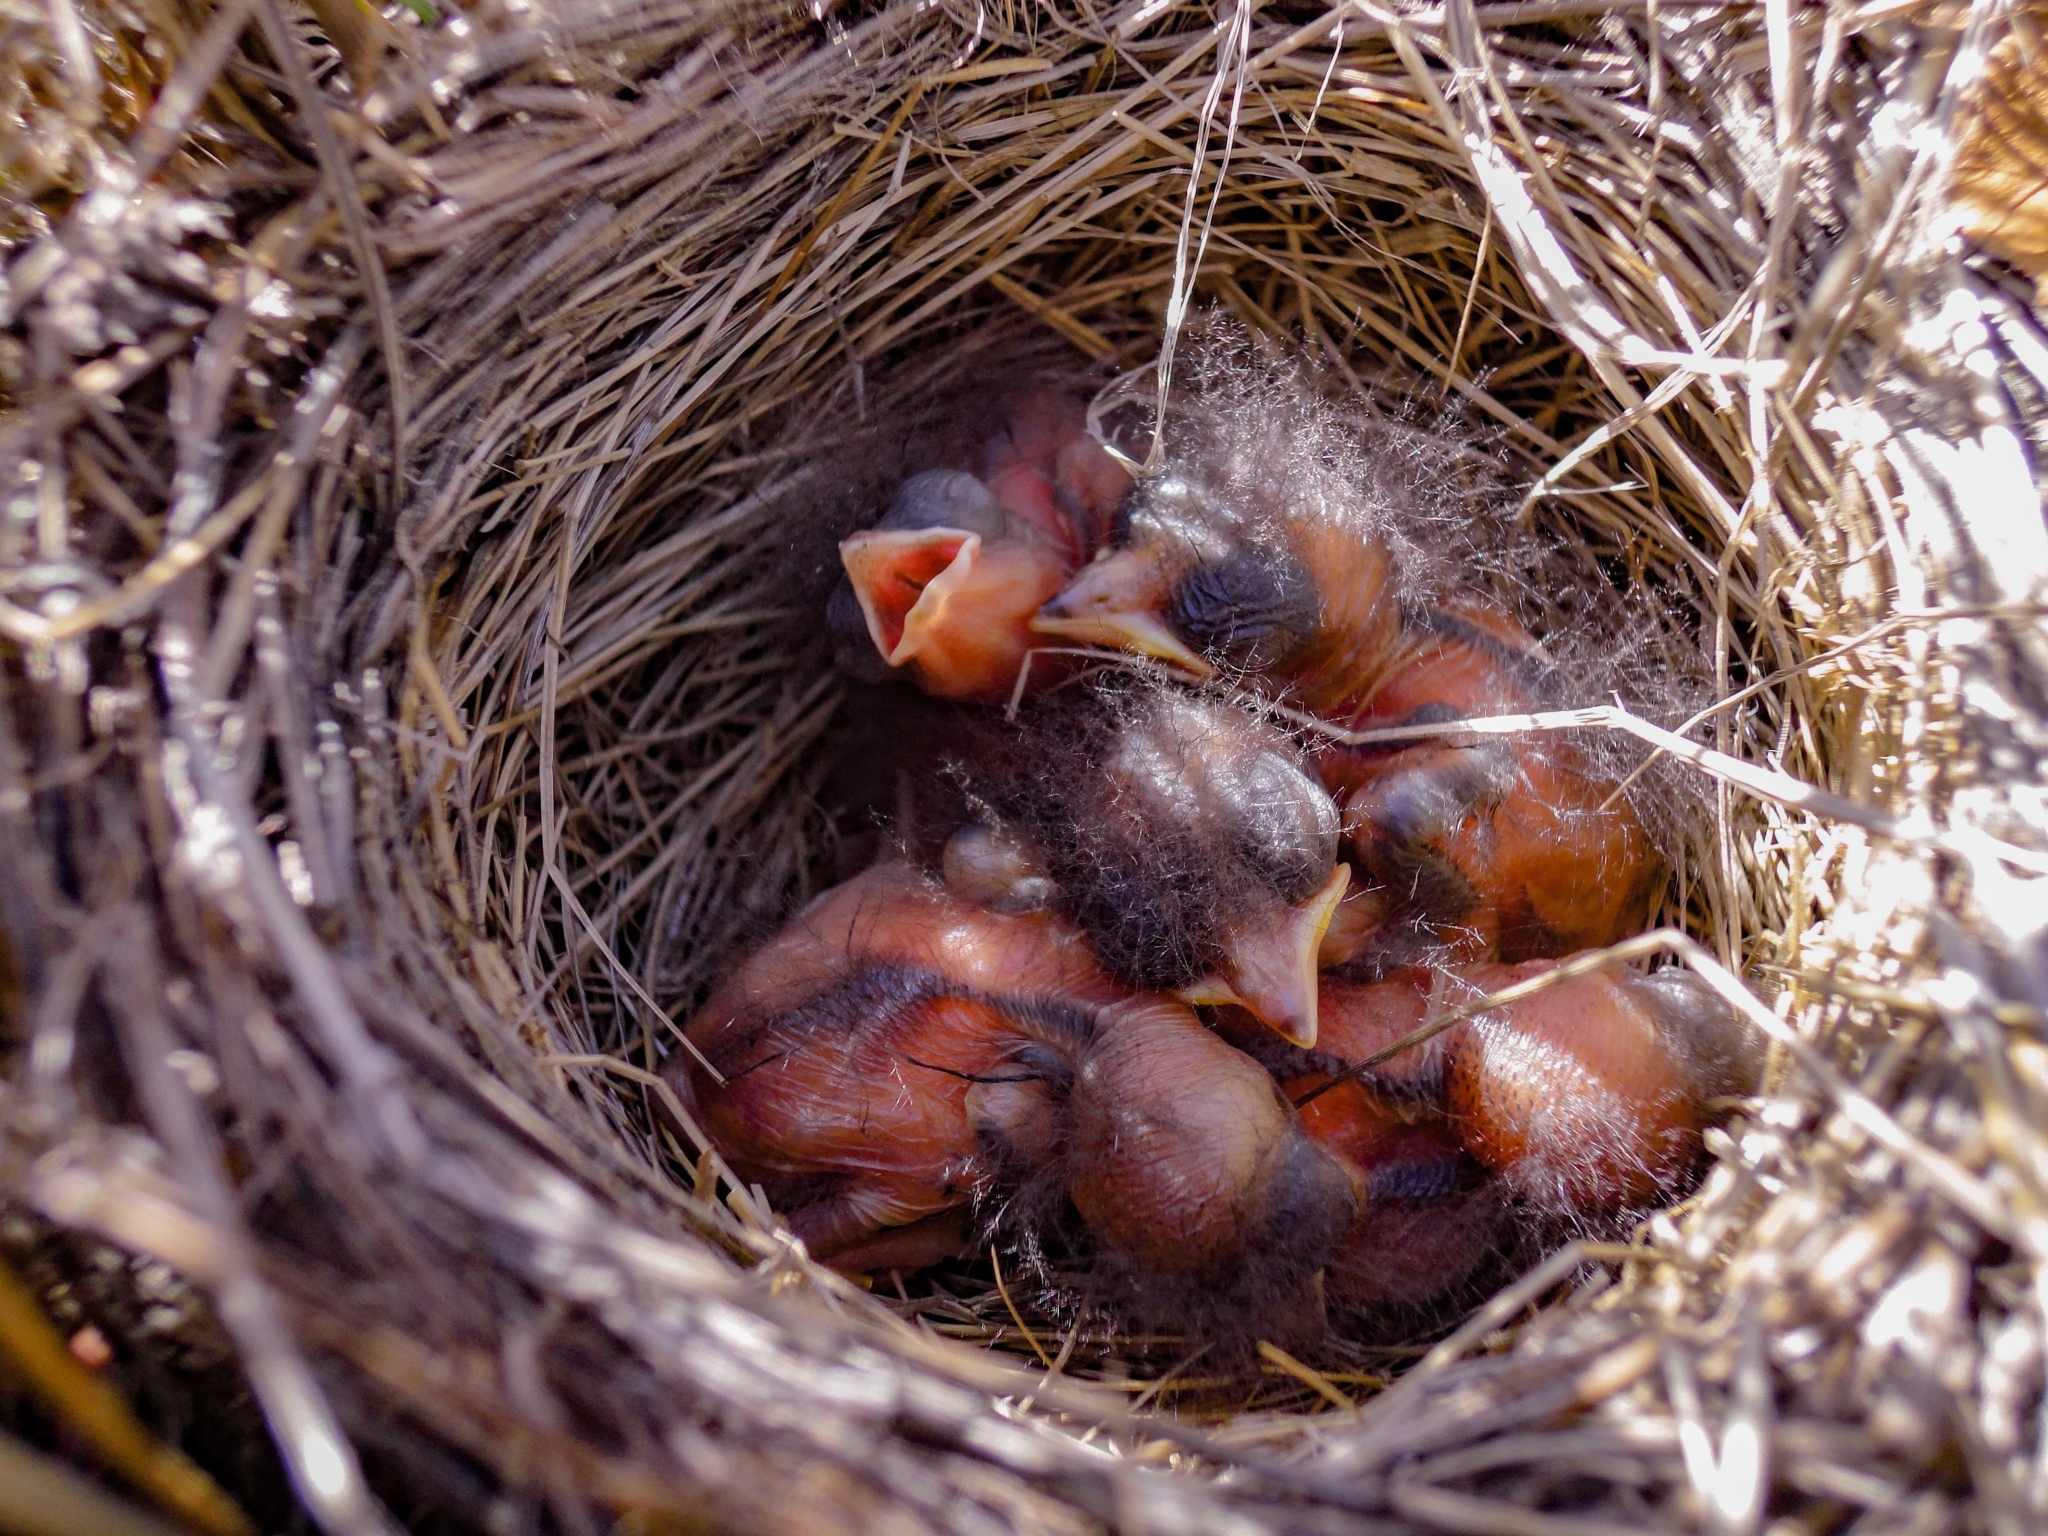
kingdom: Animalia
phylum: Chordata
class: Aves
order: Passeriformes
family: Emberizidae
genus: Emberiza
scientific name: Emberiza pusilla
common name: Little bunting
